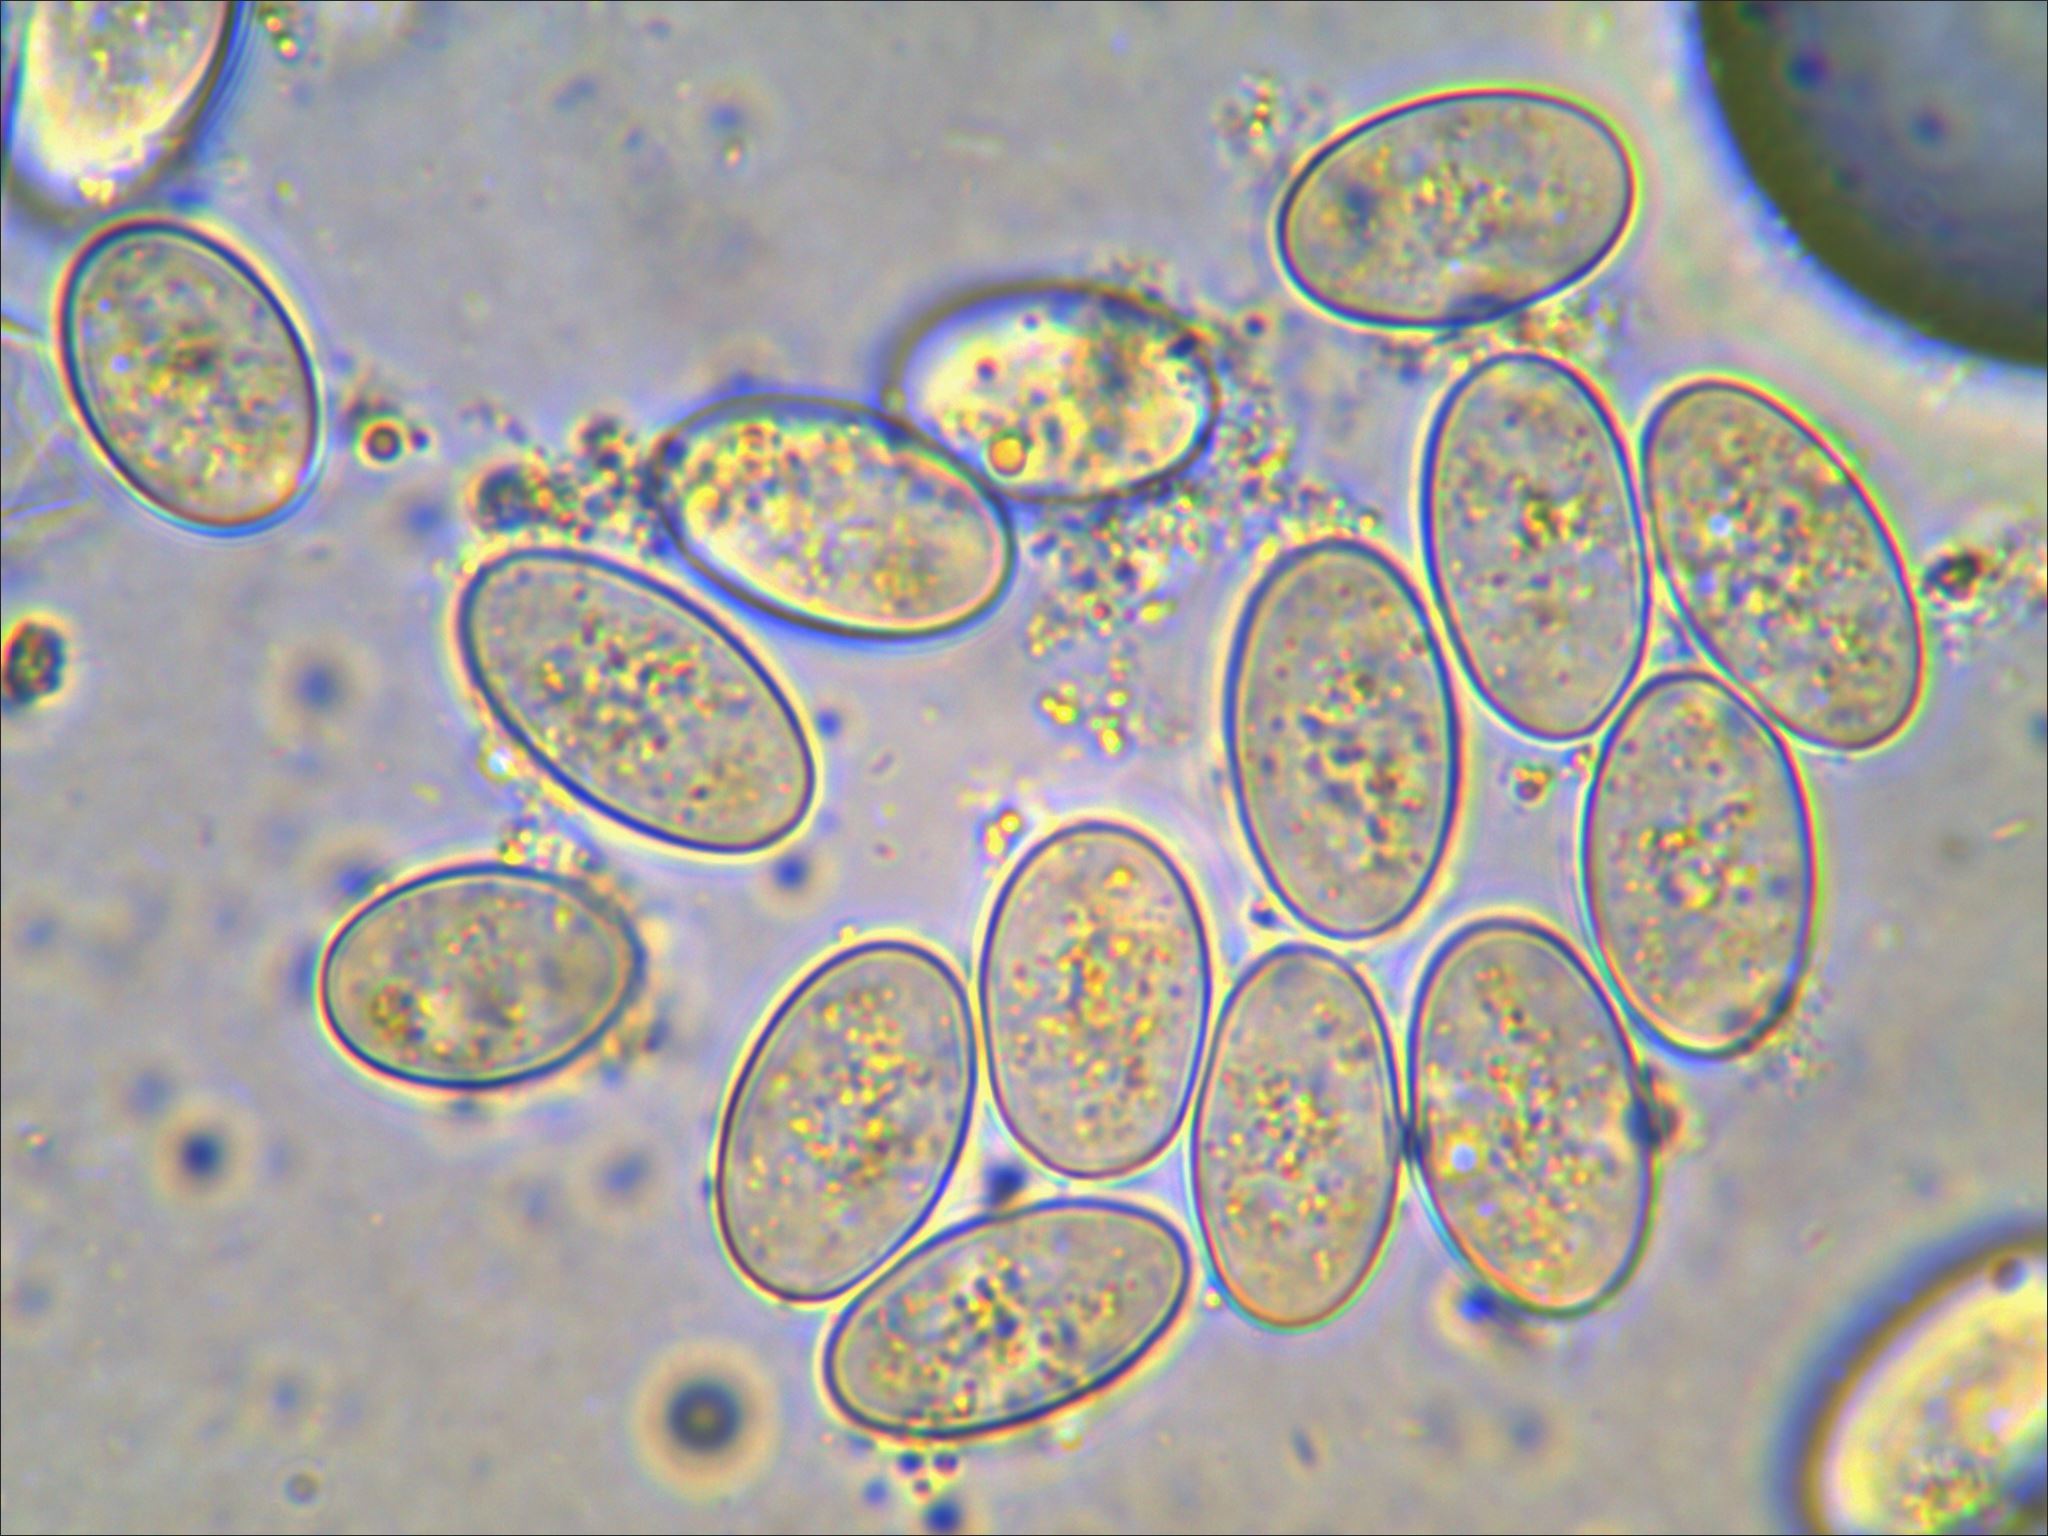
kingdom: Fungi
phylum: Ascomycota
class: Pezizomycetes
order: Pezizales
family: Morchellaceae
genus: Morchella
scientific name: Morchella americana
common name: White morel
